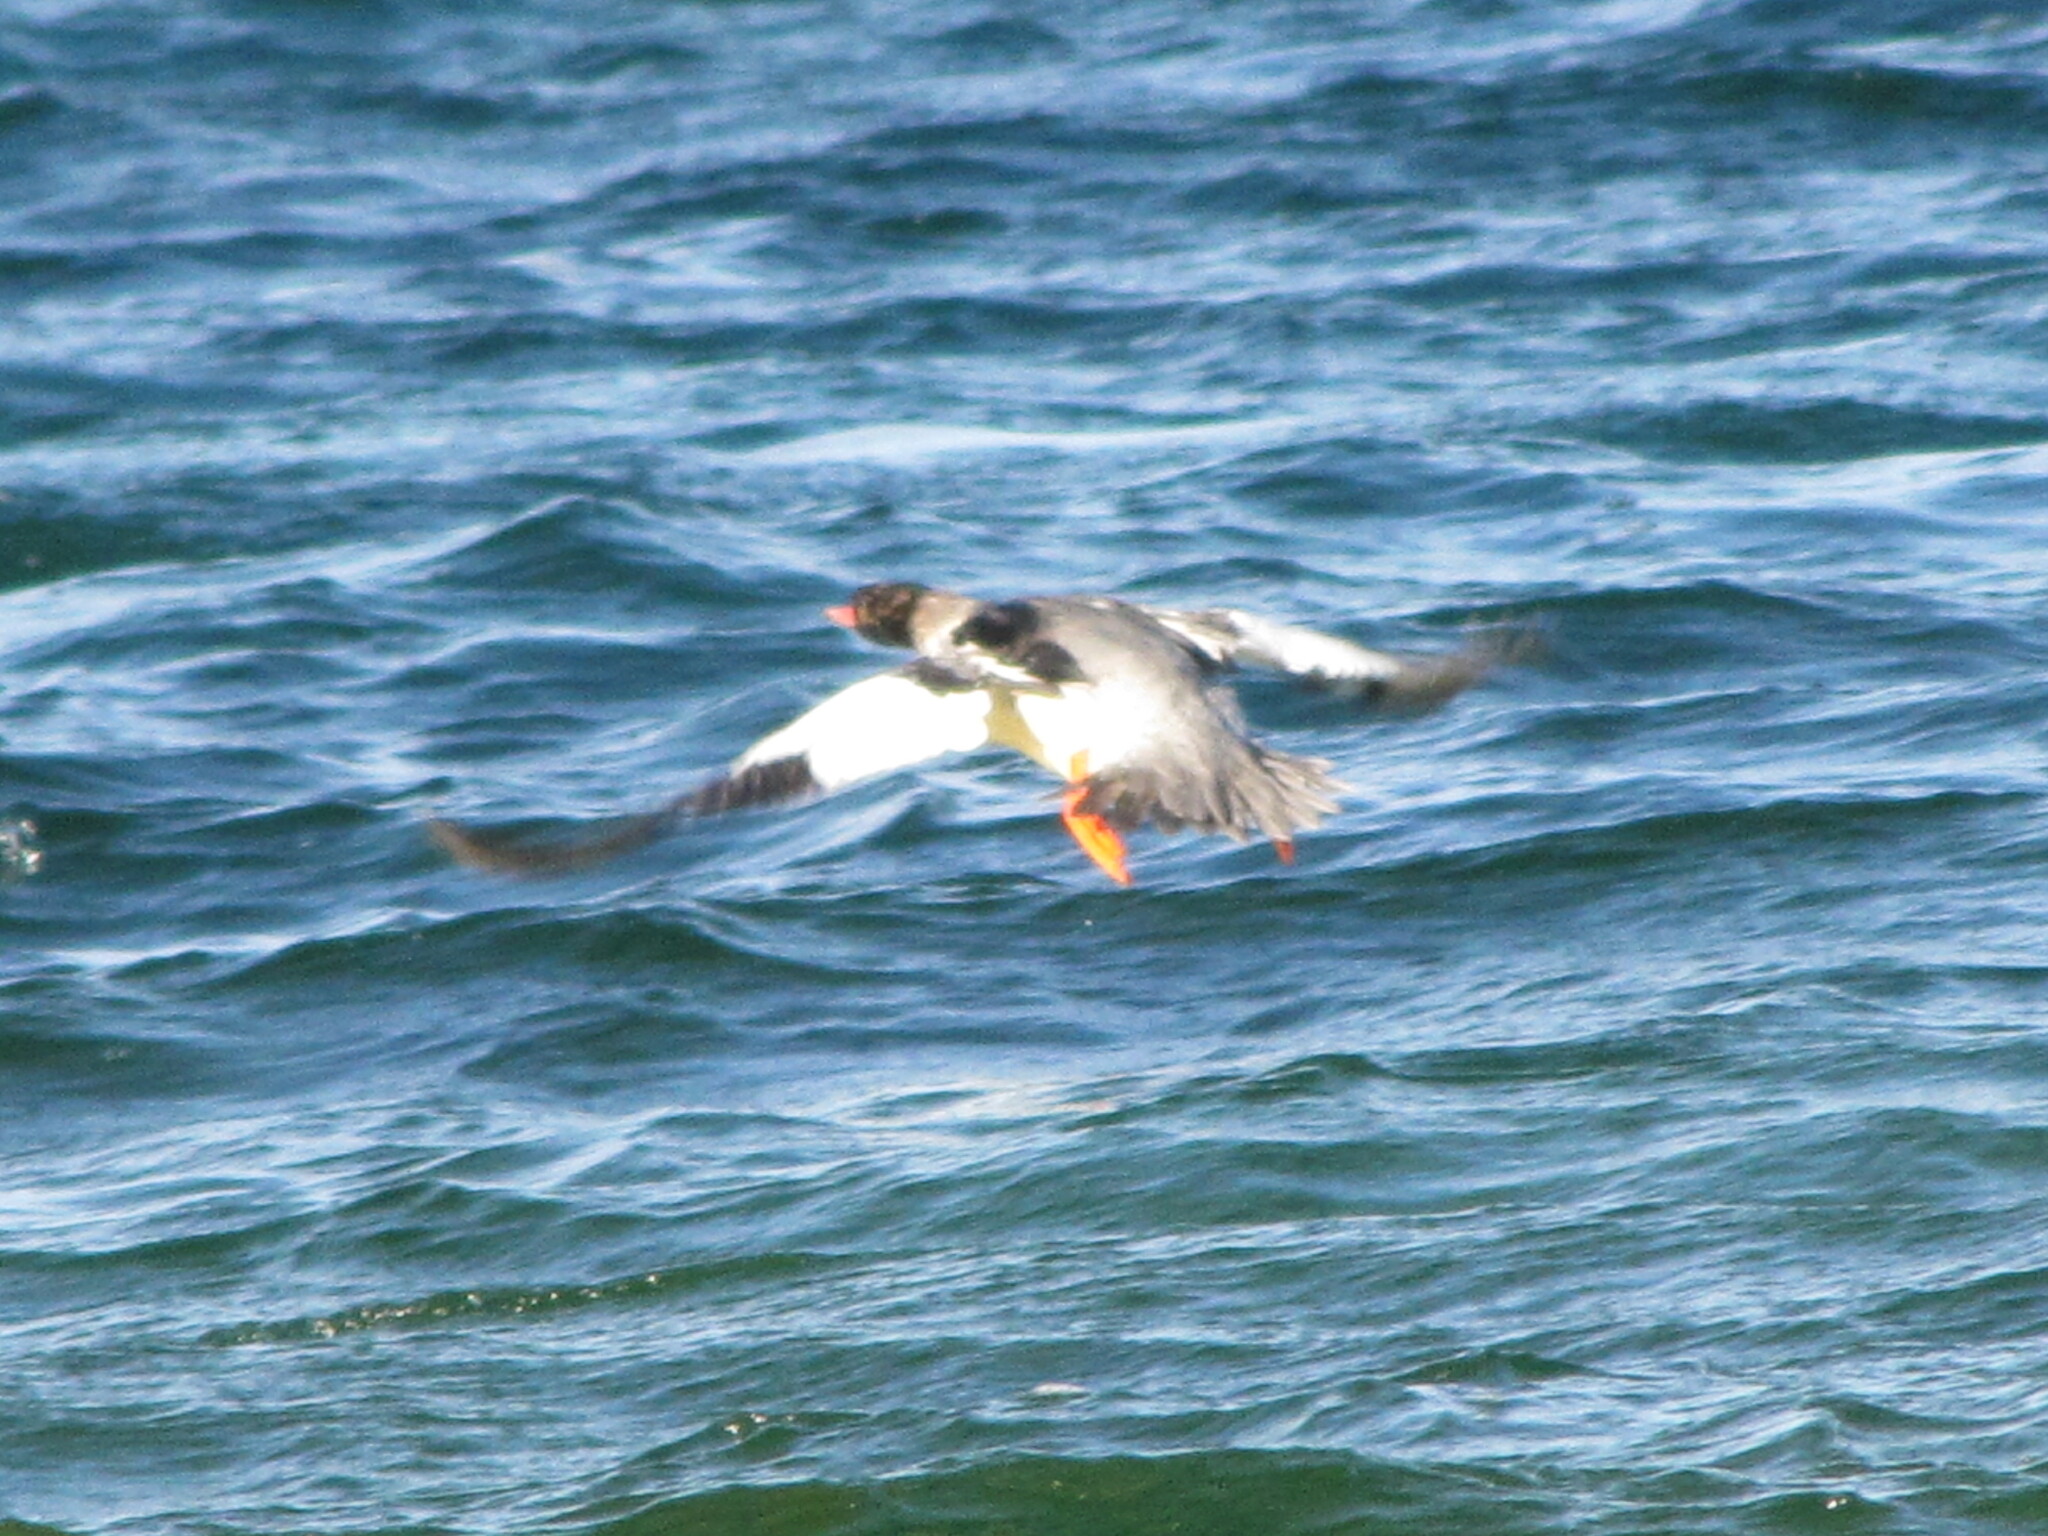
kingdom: Animalia
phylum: Chordata
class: Aves
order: Anseriformes
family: Anatidae
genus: Mergus
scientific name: Mergus serrator
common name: Red-breasted merganser
